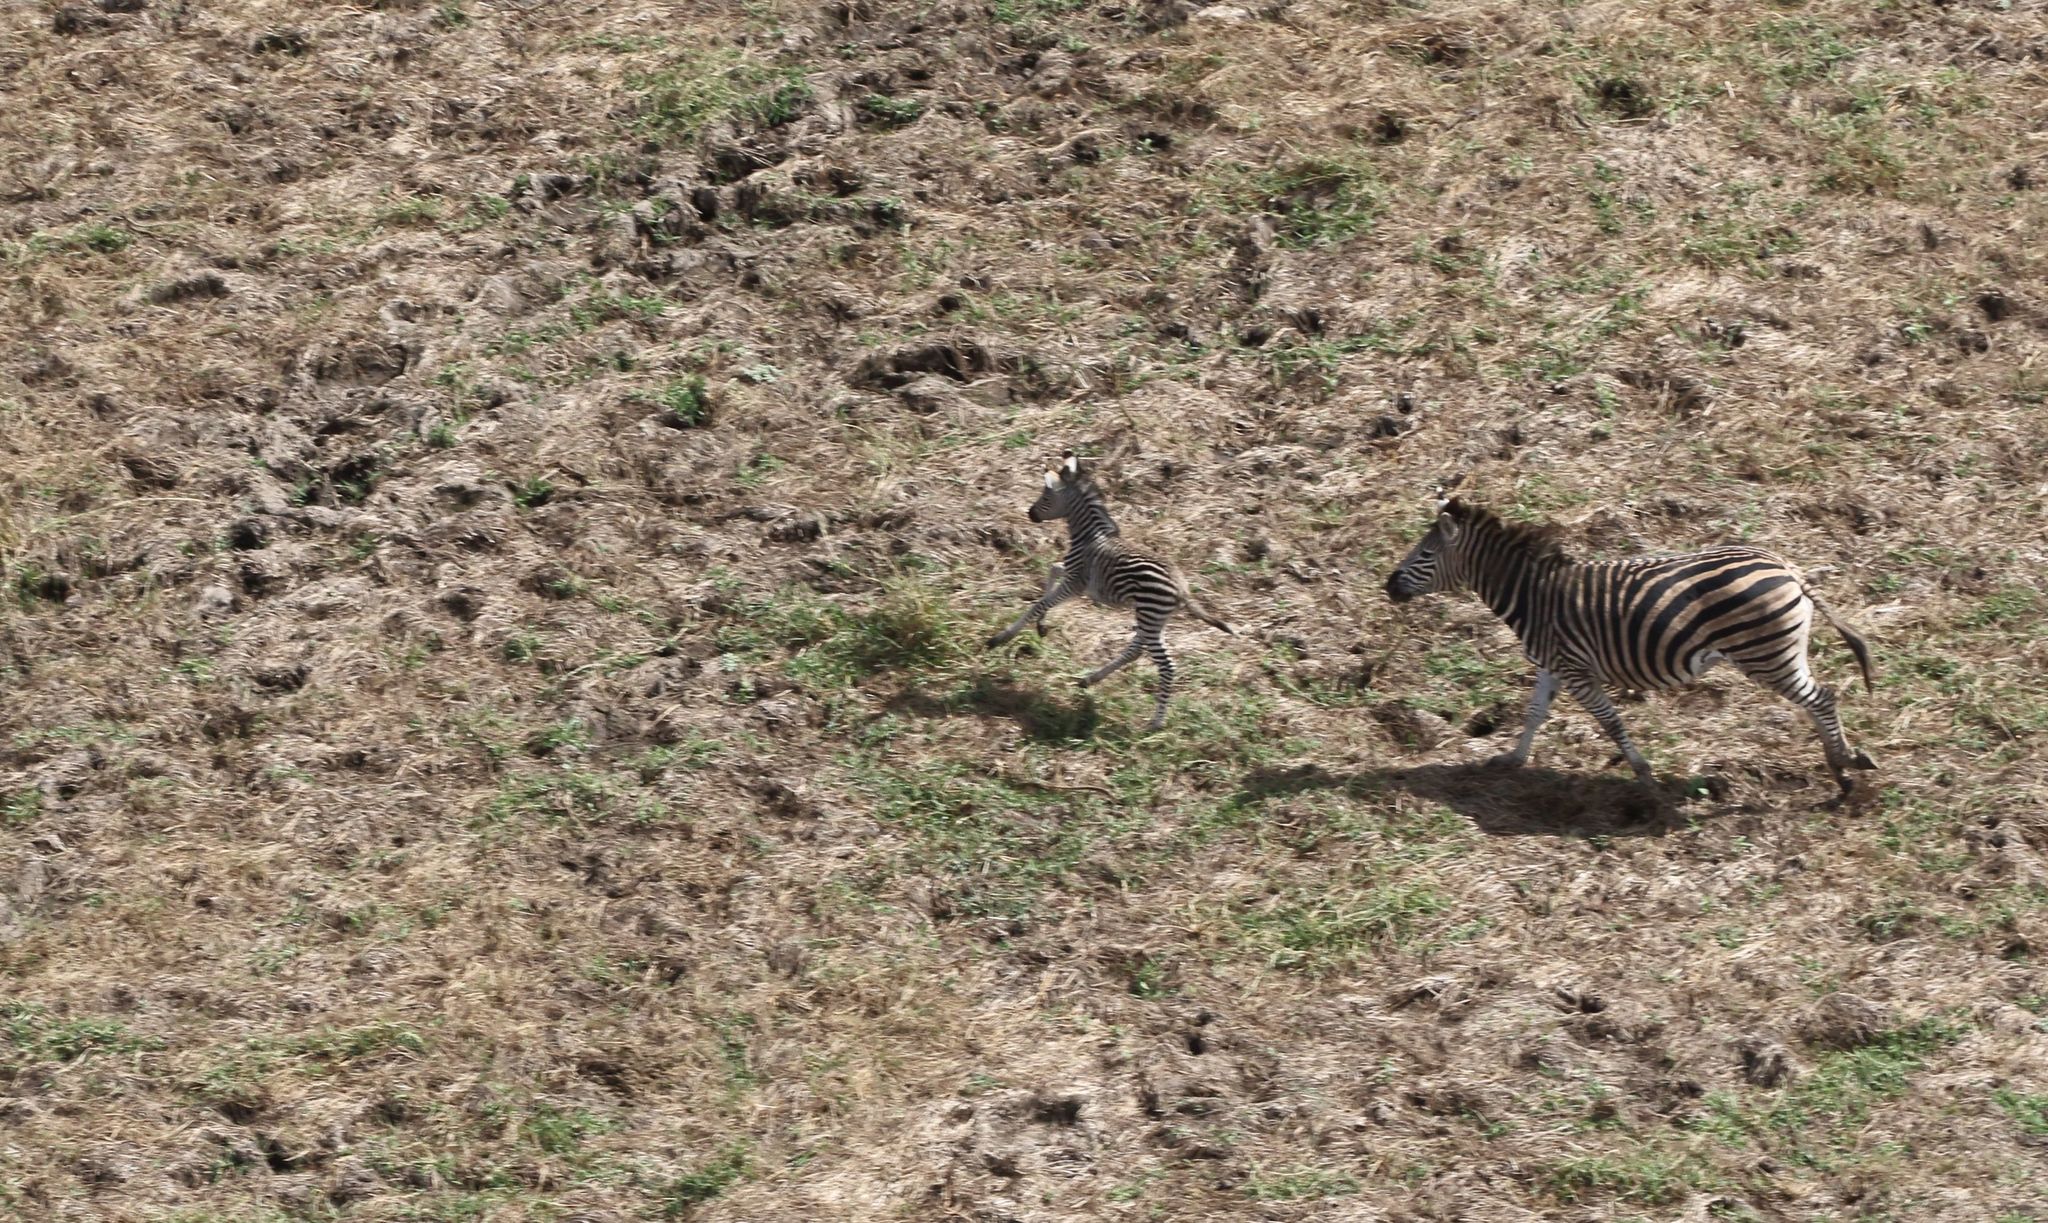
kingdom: Animalia
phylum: Chordata
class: Mammalia
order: Perissodactyla
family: Equidae
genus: Equus
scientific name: Equus quagga
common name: Plains zebra
